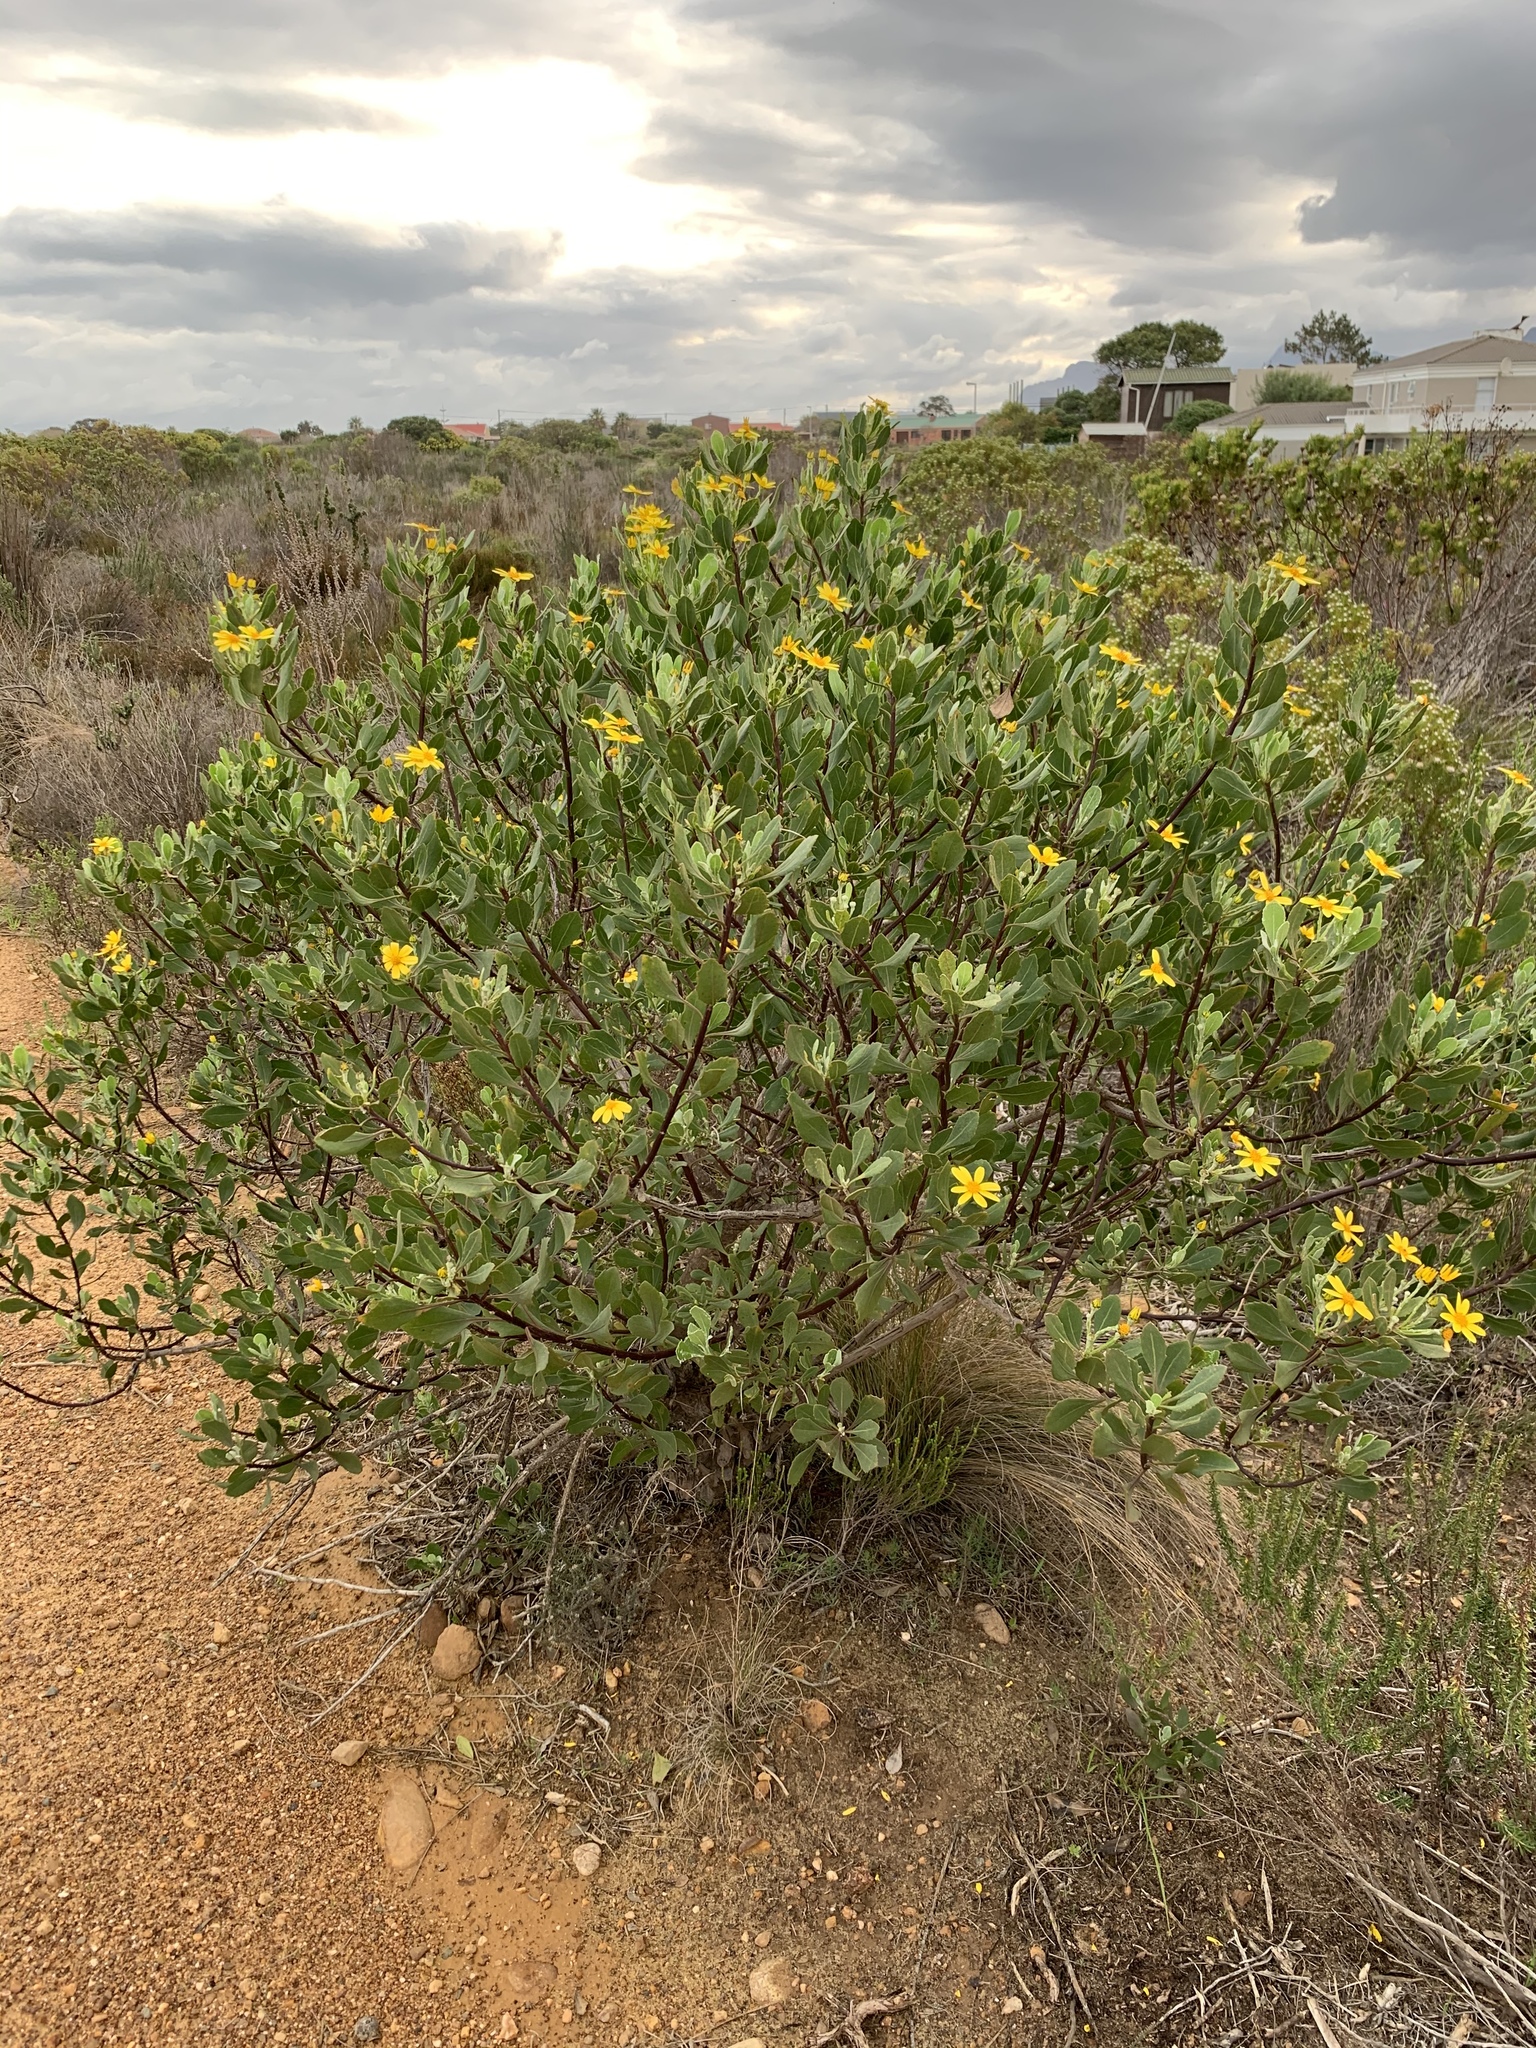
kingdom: Plantae
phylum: Tracheophyta
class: Magnoliopsida
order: Asterales
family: Asteraceae
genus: Osteospermum
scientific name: Osteospermum moniliferum
